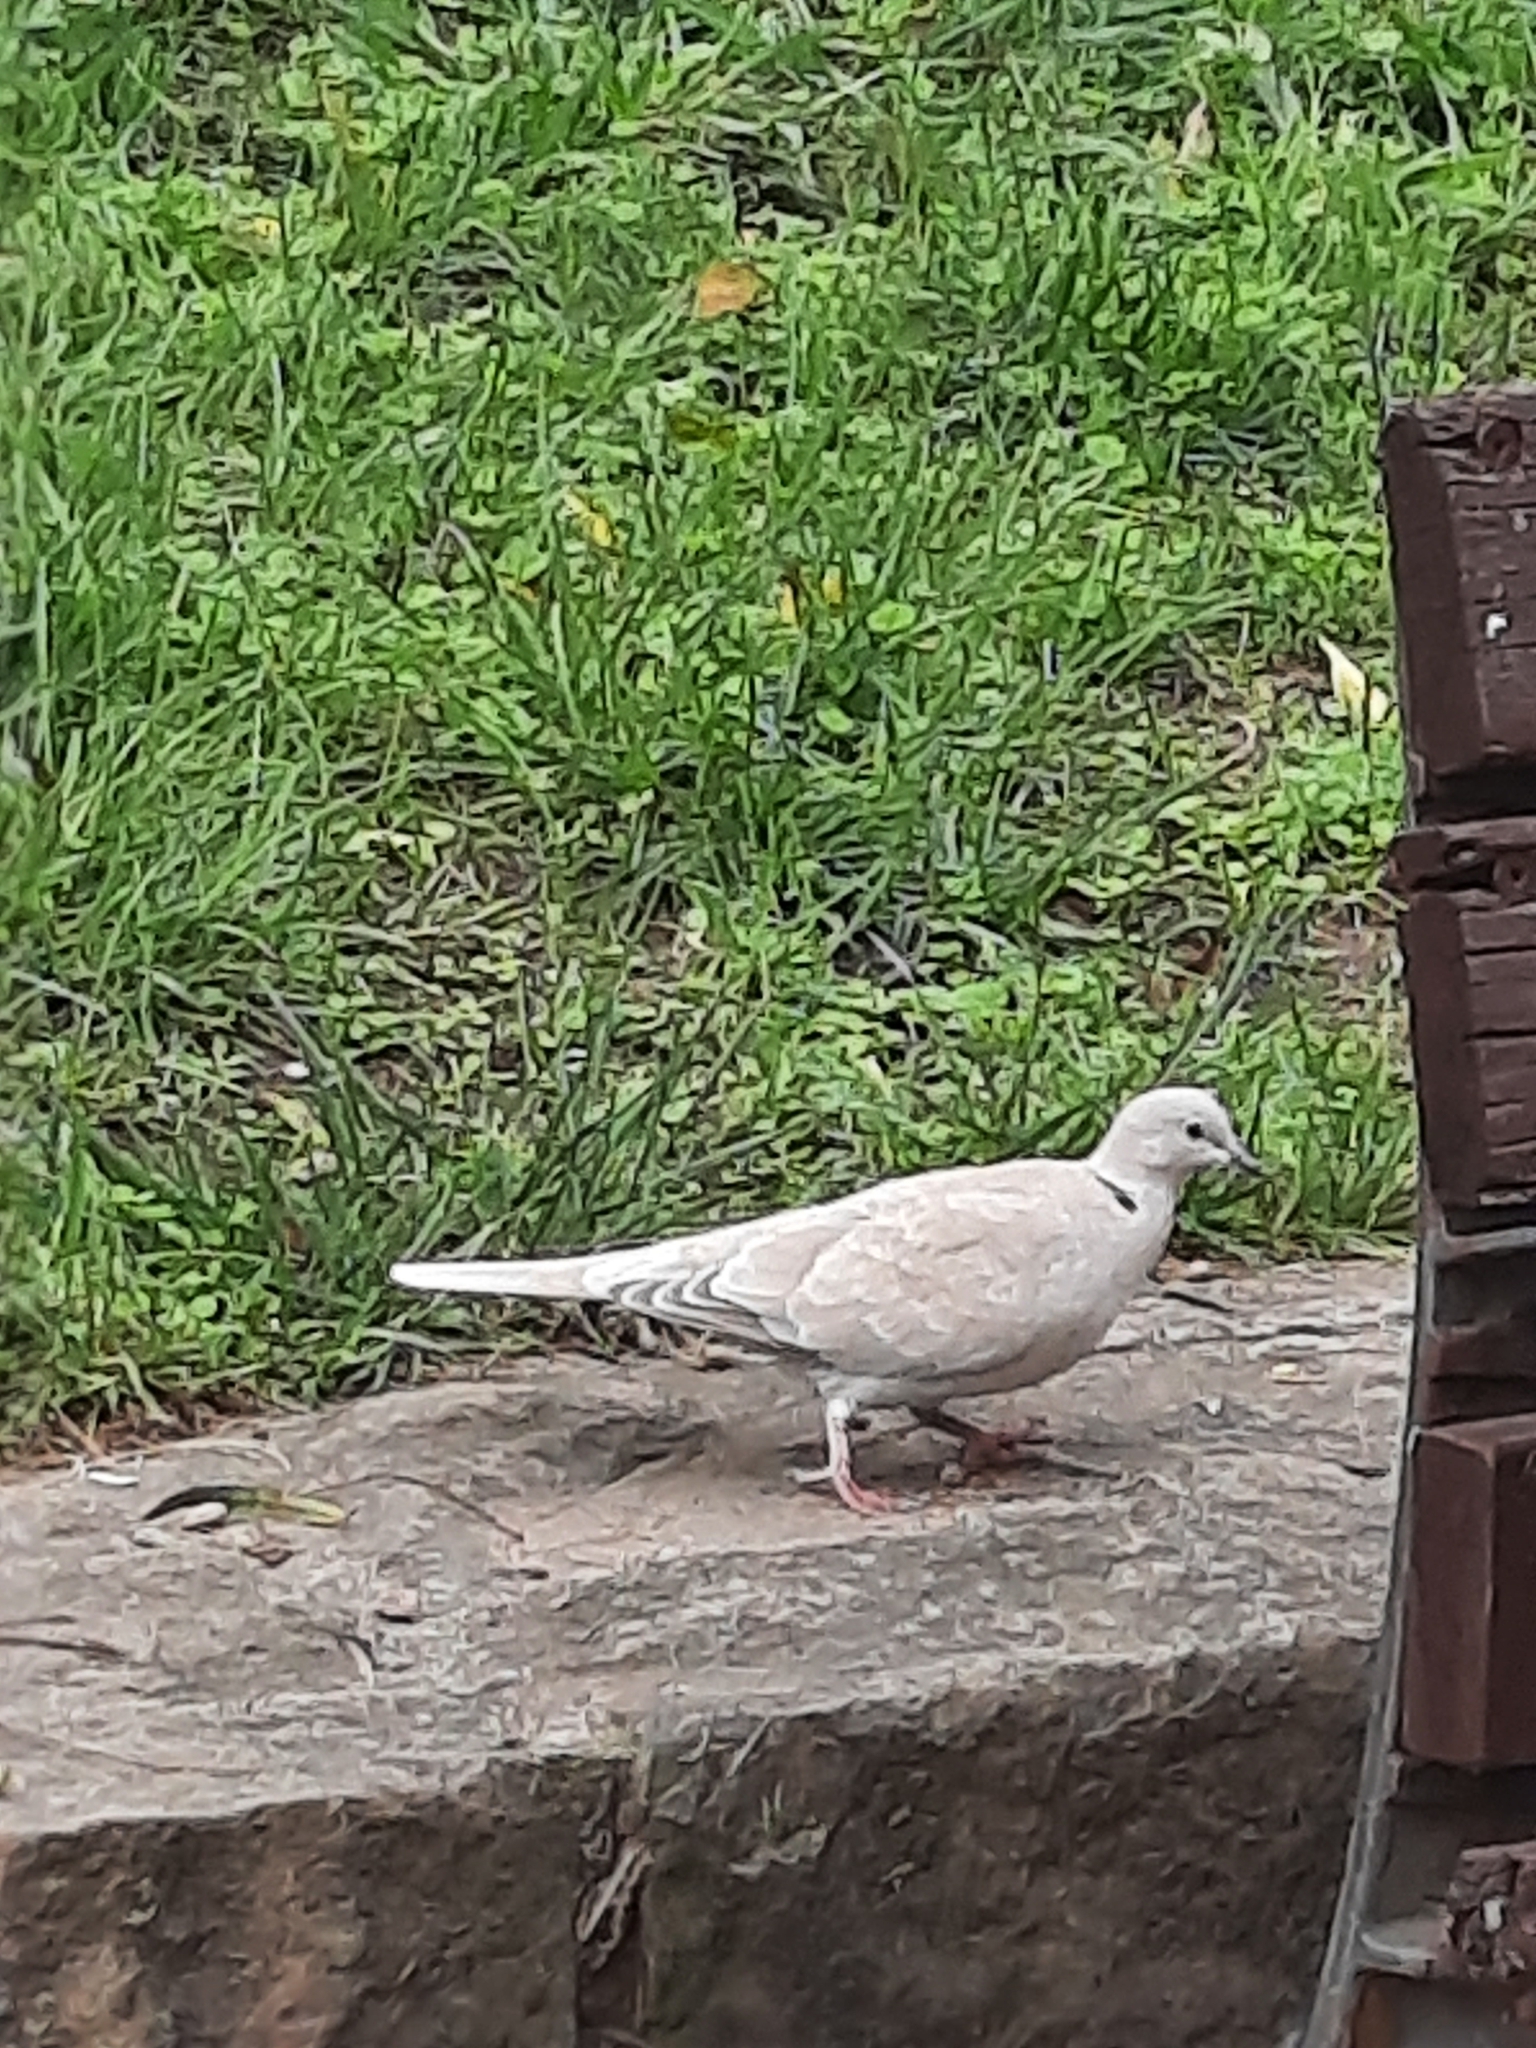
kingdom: Animalia
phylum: Chordata
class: Aves
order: Columbiformes
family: Columbidae
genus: Streptopelia
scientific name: Streptopelia decaocto
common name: Eurasian collared dove
